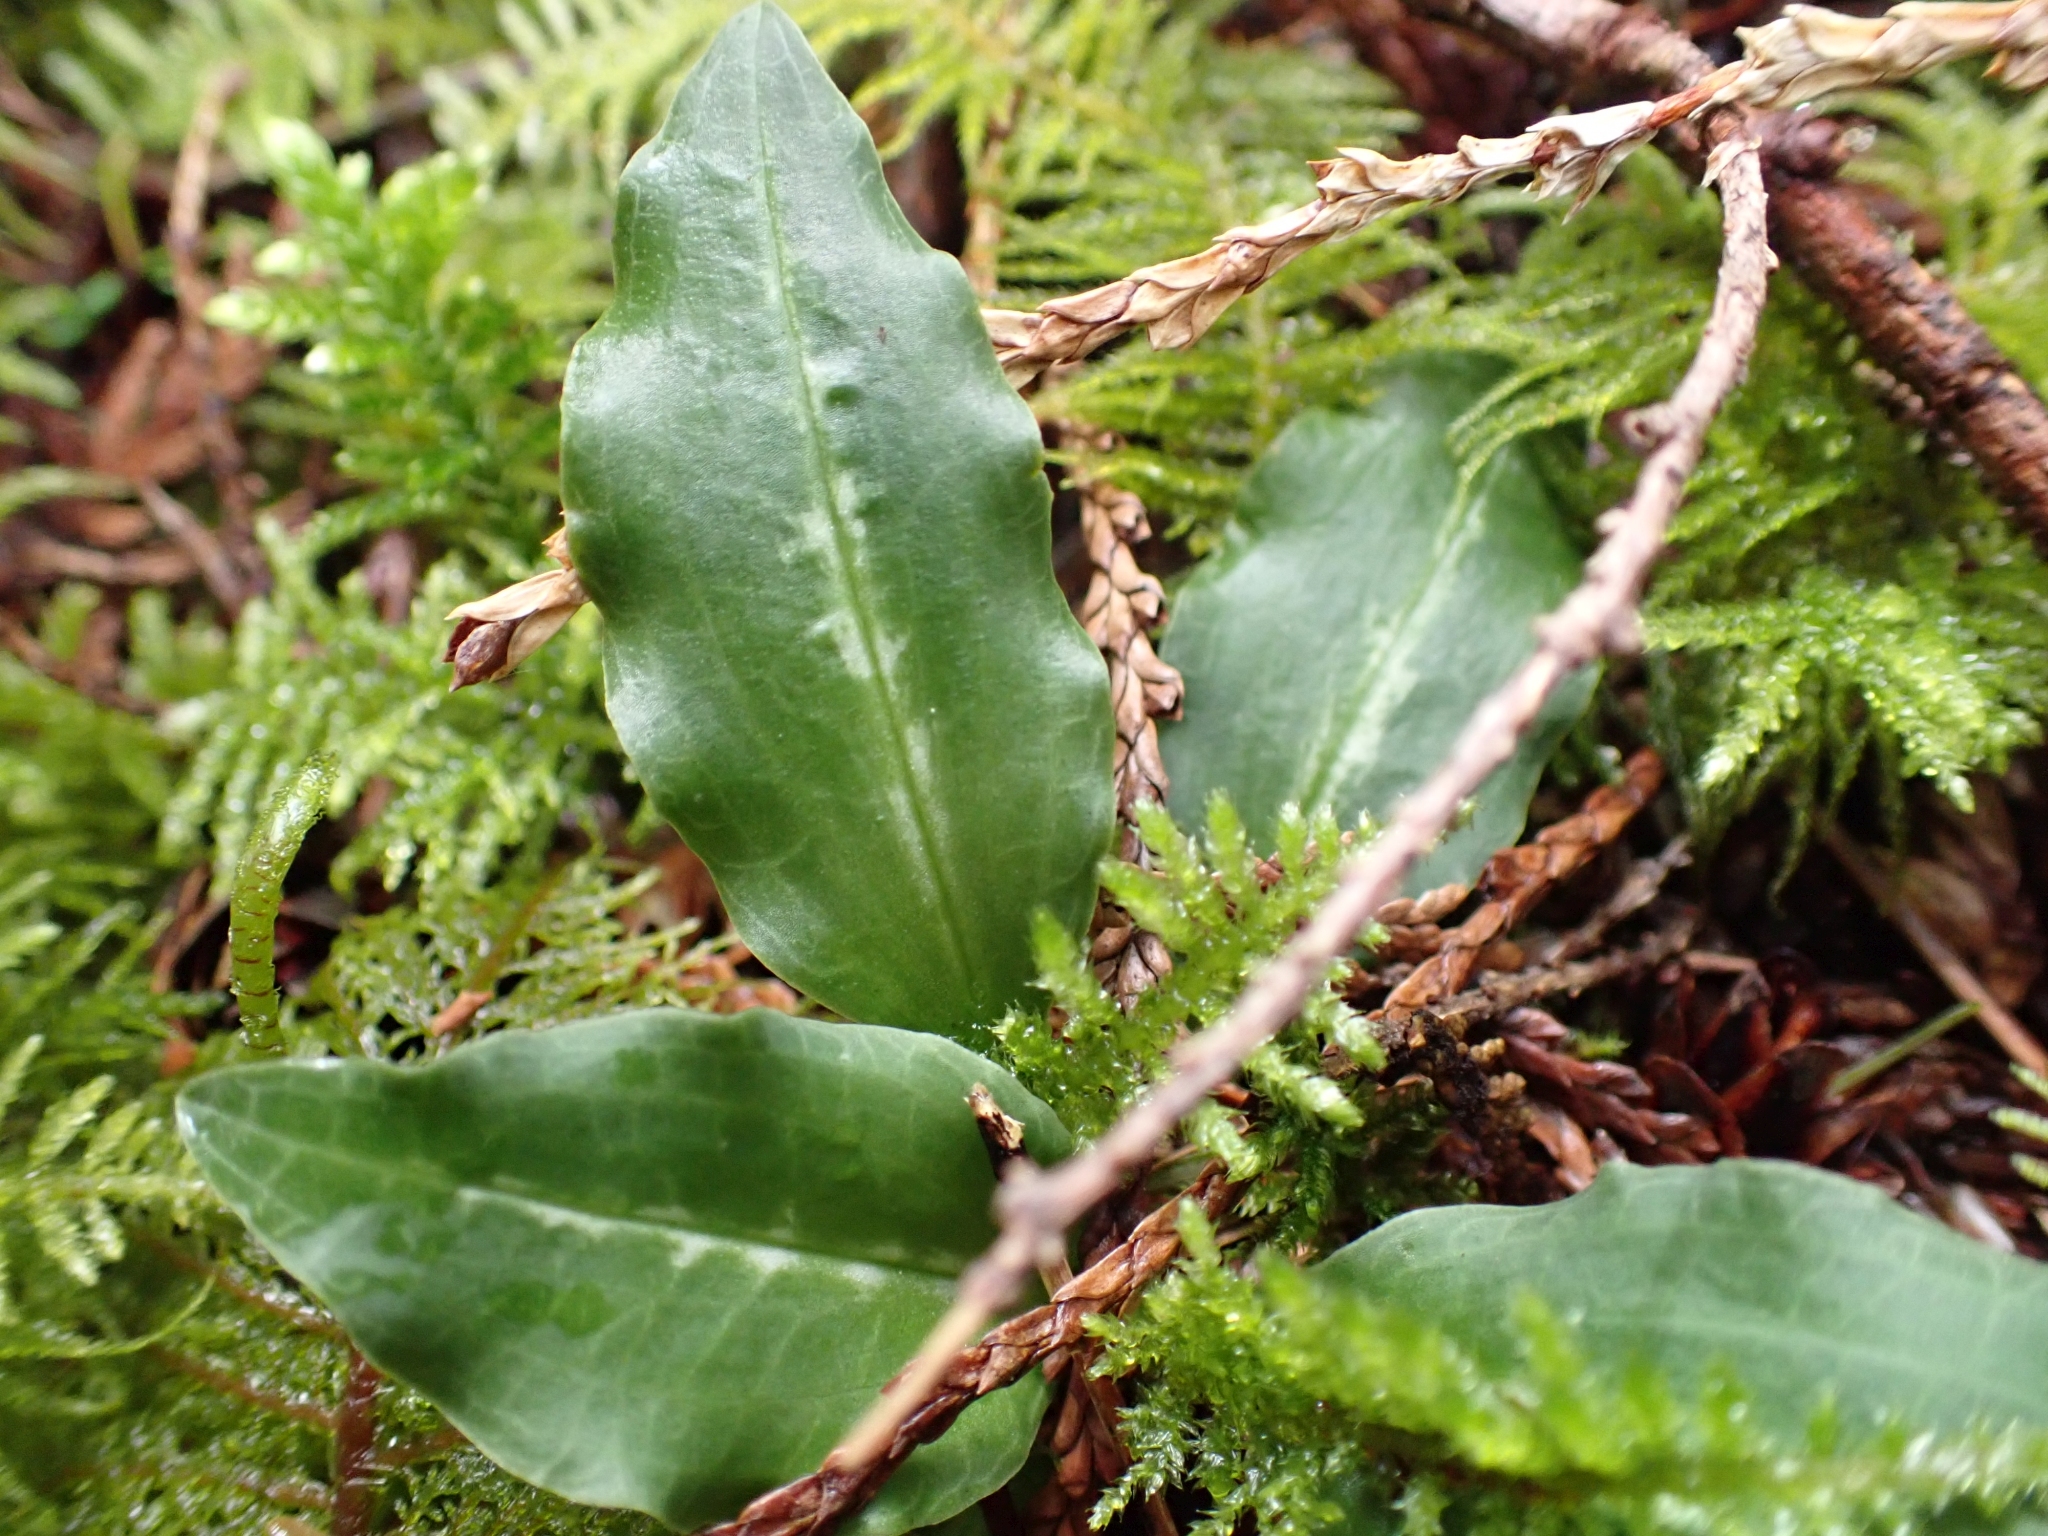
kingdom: Plantae
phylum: Tracheophyta
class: Liliopsida
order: Asparagales
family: Orchidaceae
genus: Goodyera
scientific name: Goodyera oblongifolia
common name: Giant rattlesnake-plantain
